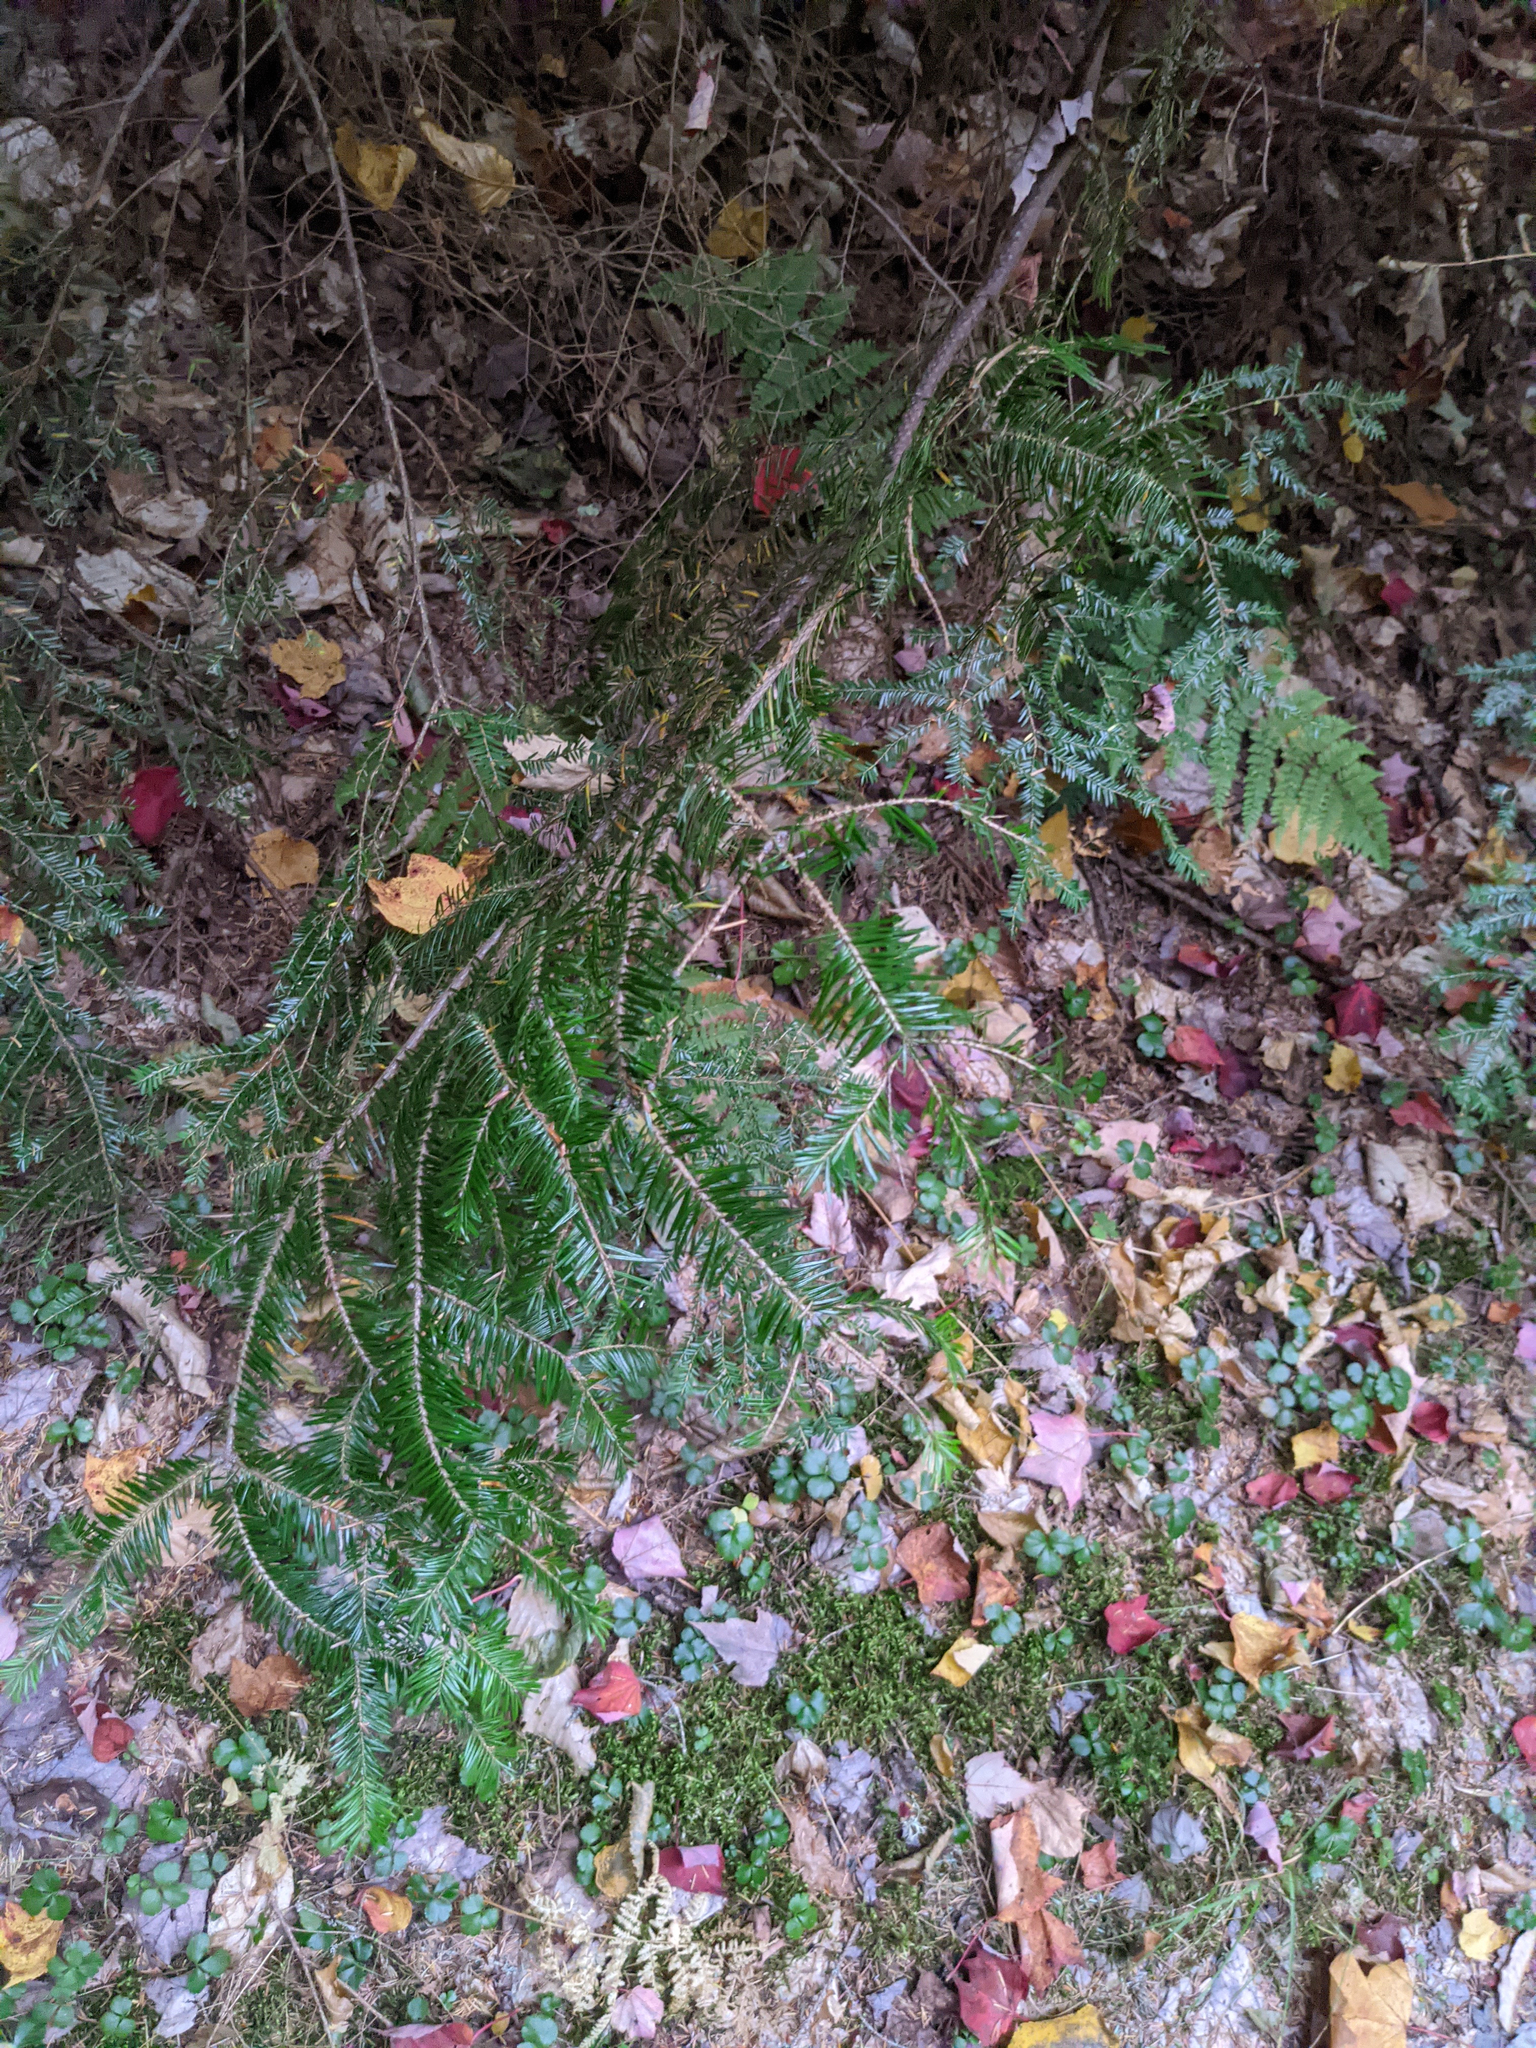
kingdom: Plantae
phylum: Tracheophyta
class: Pinopsida
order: Pinales
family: Pinaceae
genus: Abies
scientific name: Abies balsamea
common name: Balsam fir
